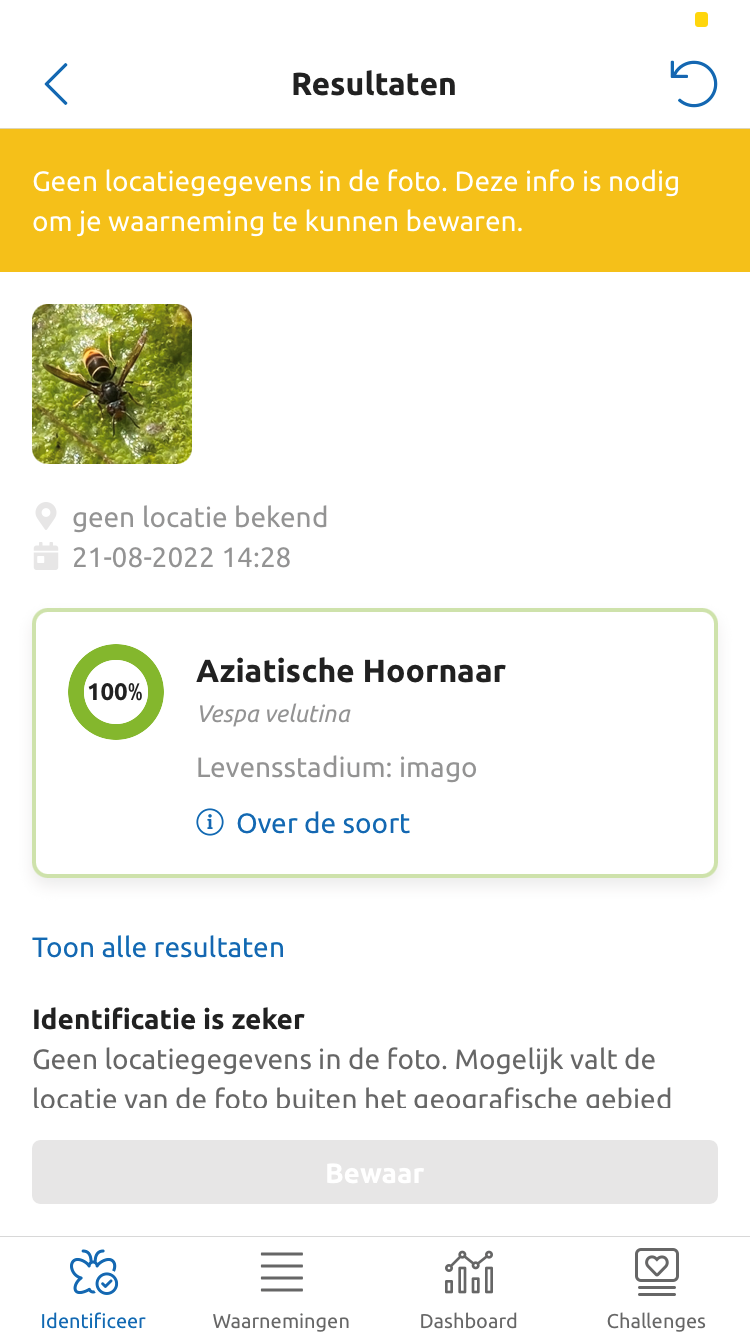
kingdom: Animalia
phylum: Arthropoda
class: Insecta
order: Hymenoptera
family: Vespidae
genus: Vespa
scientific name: Vespa velutina
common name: Asian hornet
